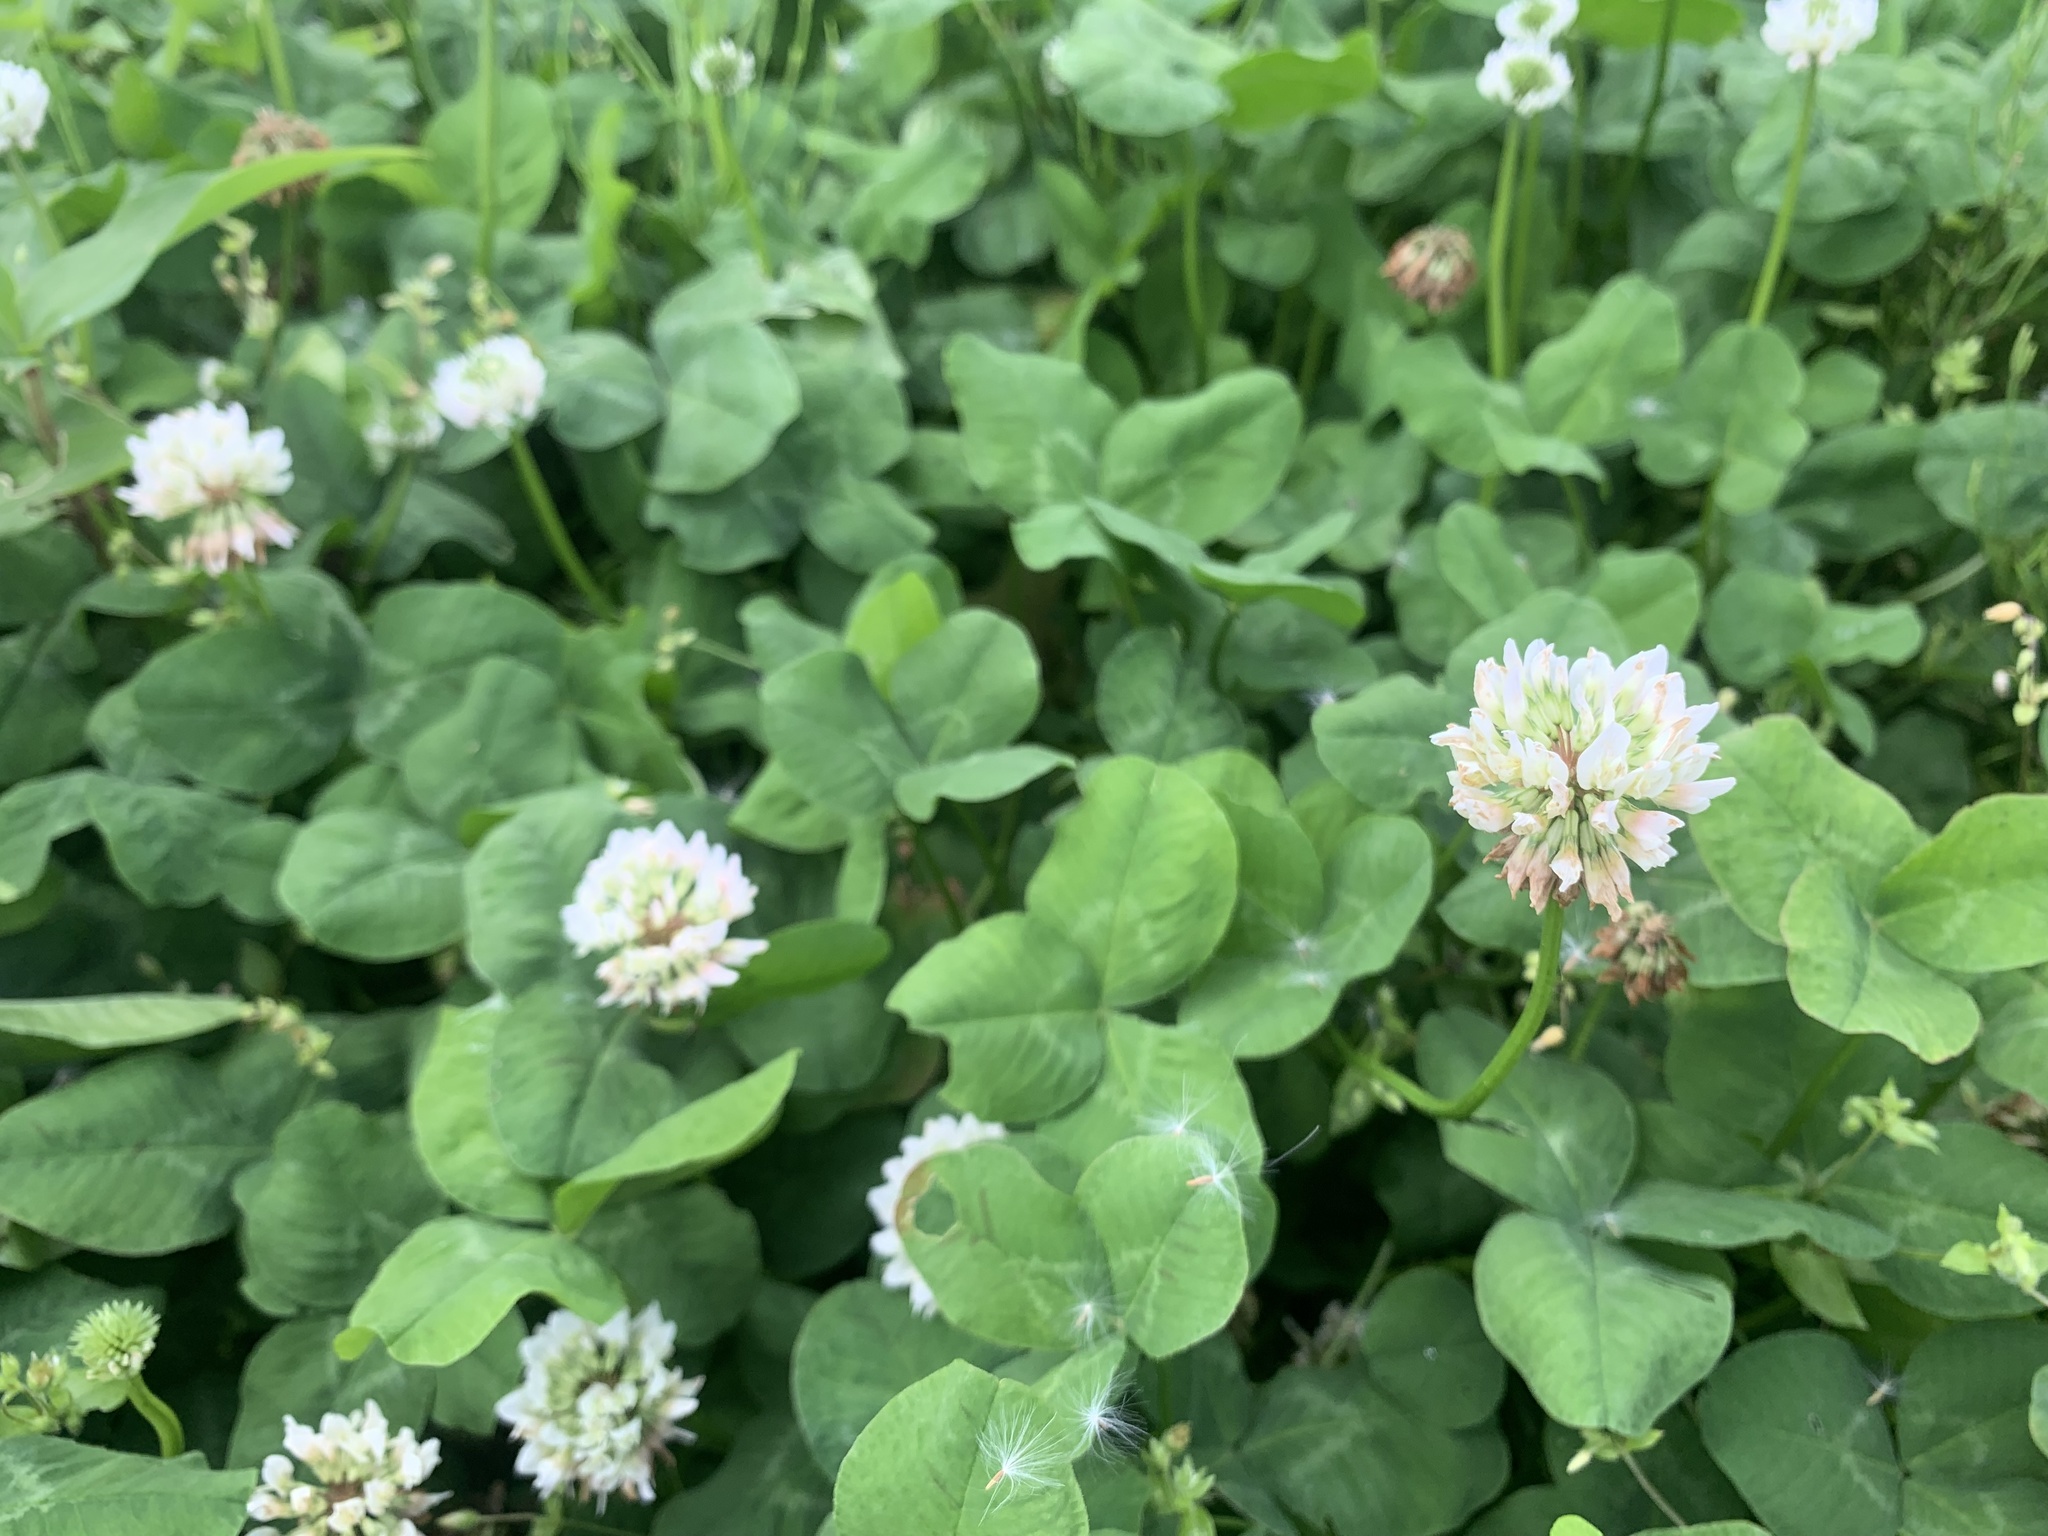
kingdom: Plantae
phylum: Tracheophyta
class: Magnoliopsida
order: Fabales
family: Fabaceae
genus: Trifolium
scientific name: Trifolium repens
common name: White clover
